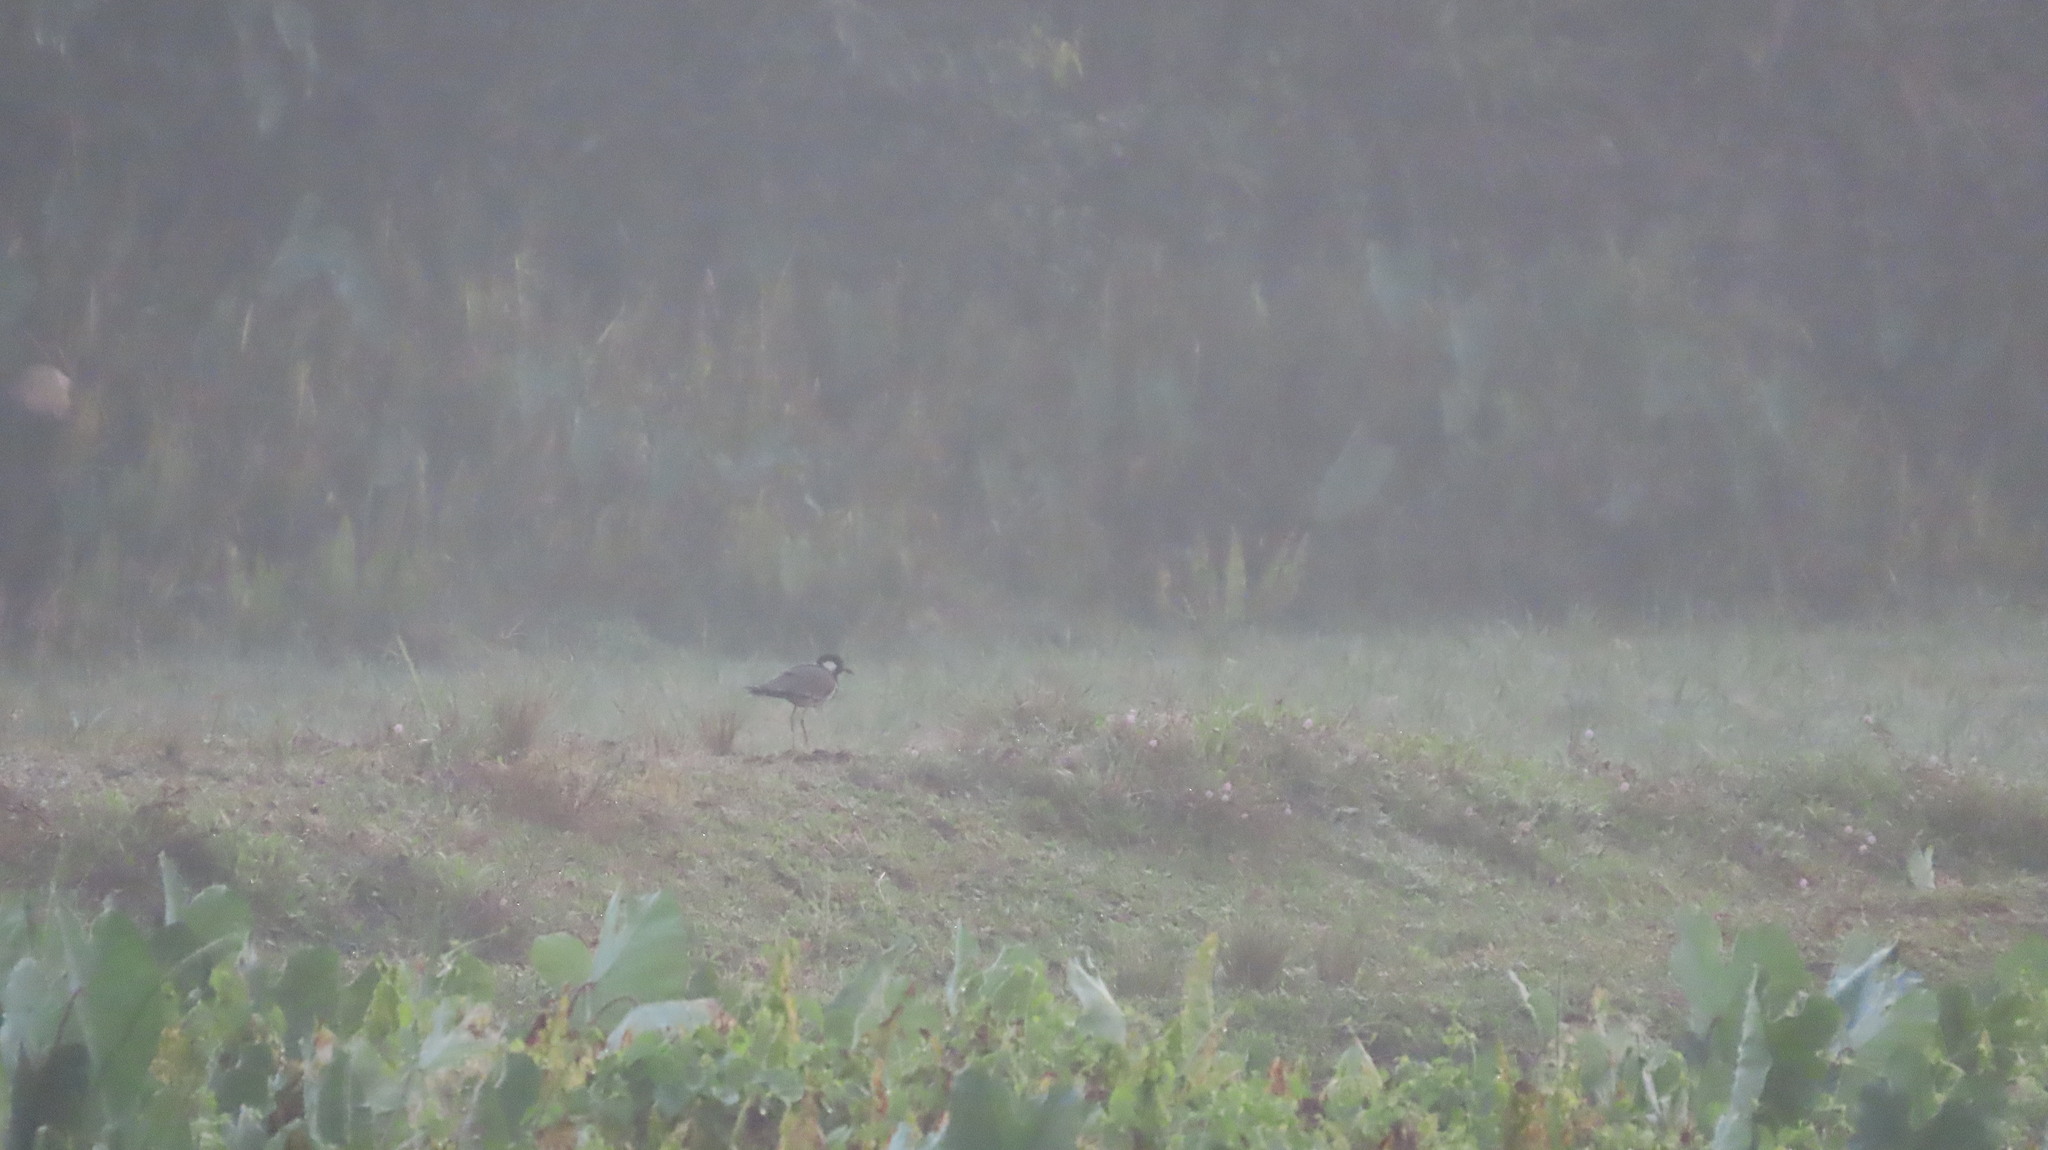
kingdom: Animalia
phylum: Chordata
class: Aves
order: Charadriiformes
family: Charadriidae
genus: Vanellus
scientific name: Vanellus indicus
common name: Red-wattled lapwing
